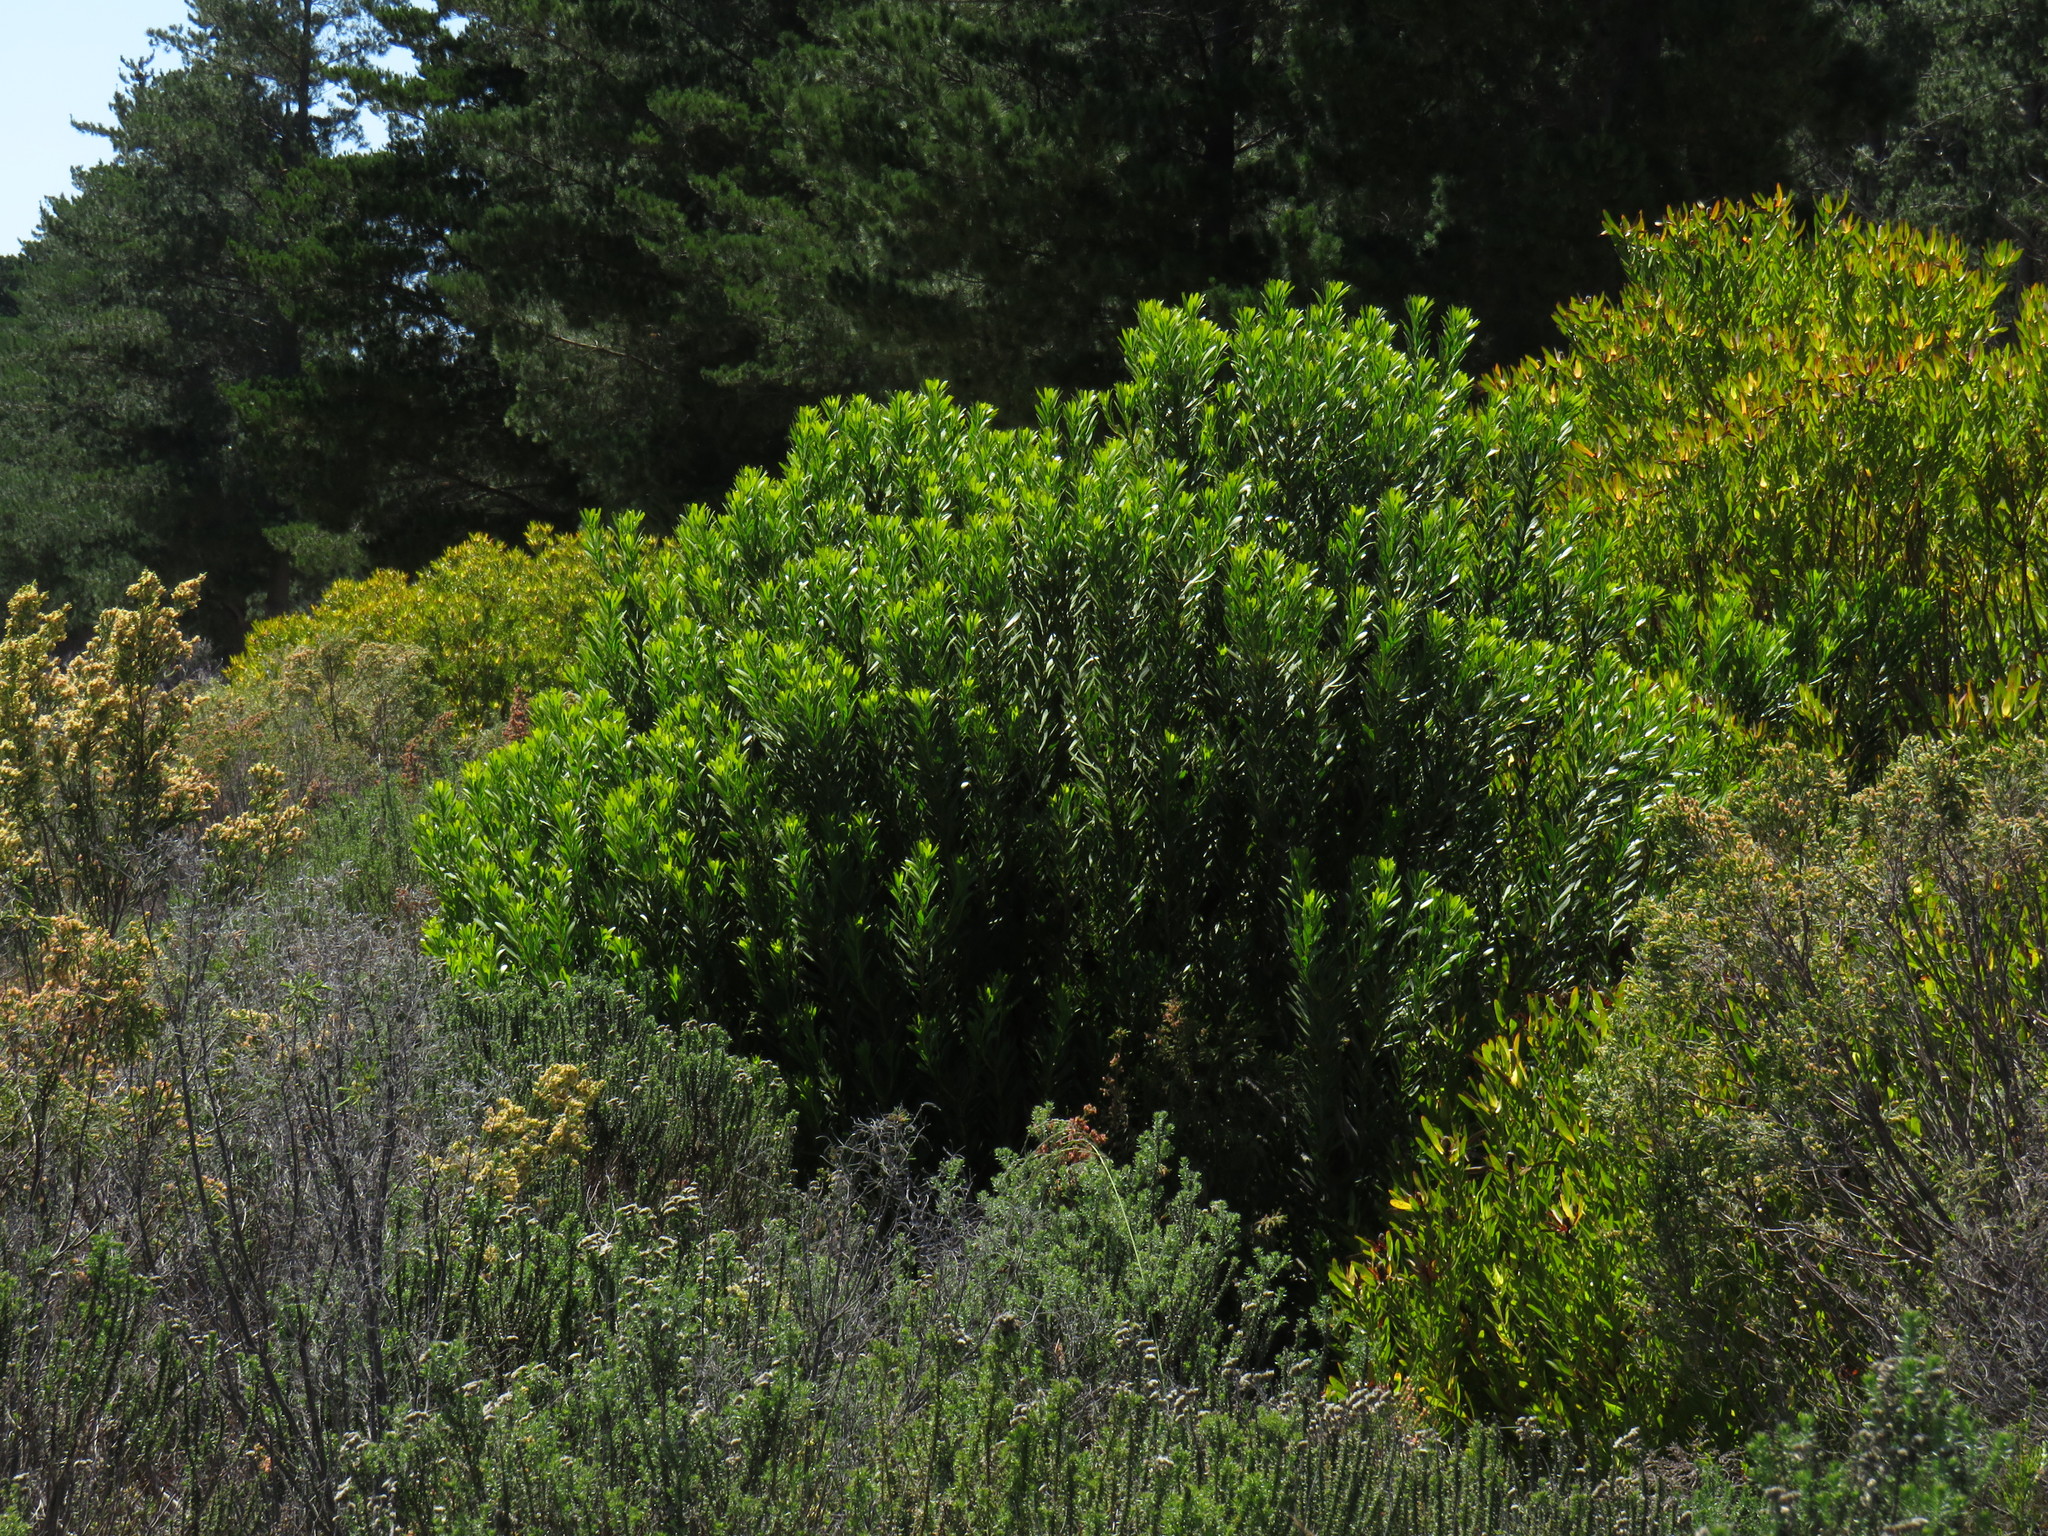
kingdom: Plantae
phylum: Tracheophyta
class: Magnoliopsida
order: Proteales
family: Proteaceae
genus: Protea
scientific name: Protea repens
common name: Sugarbush
